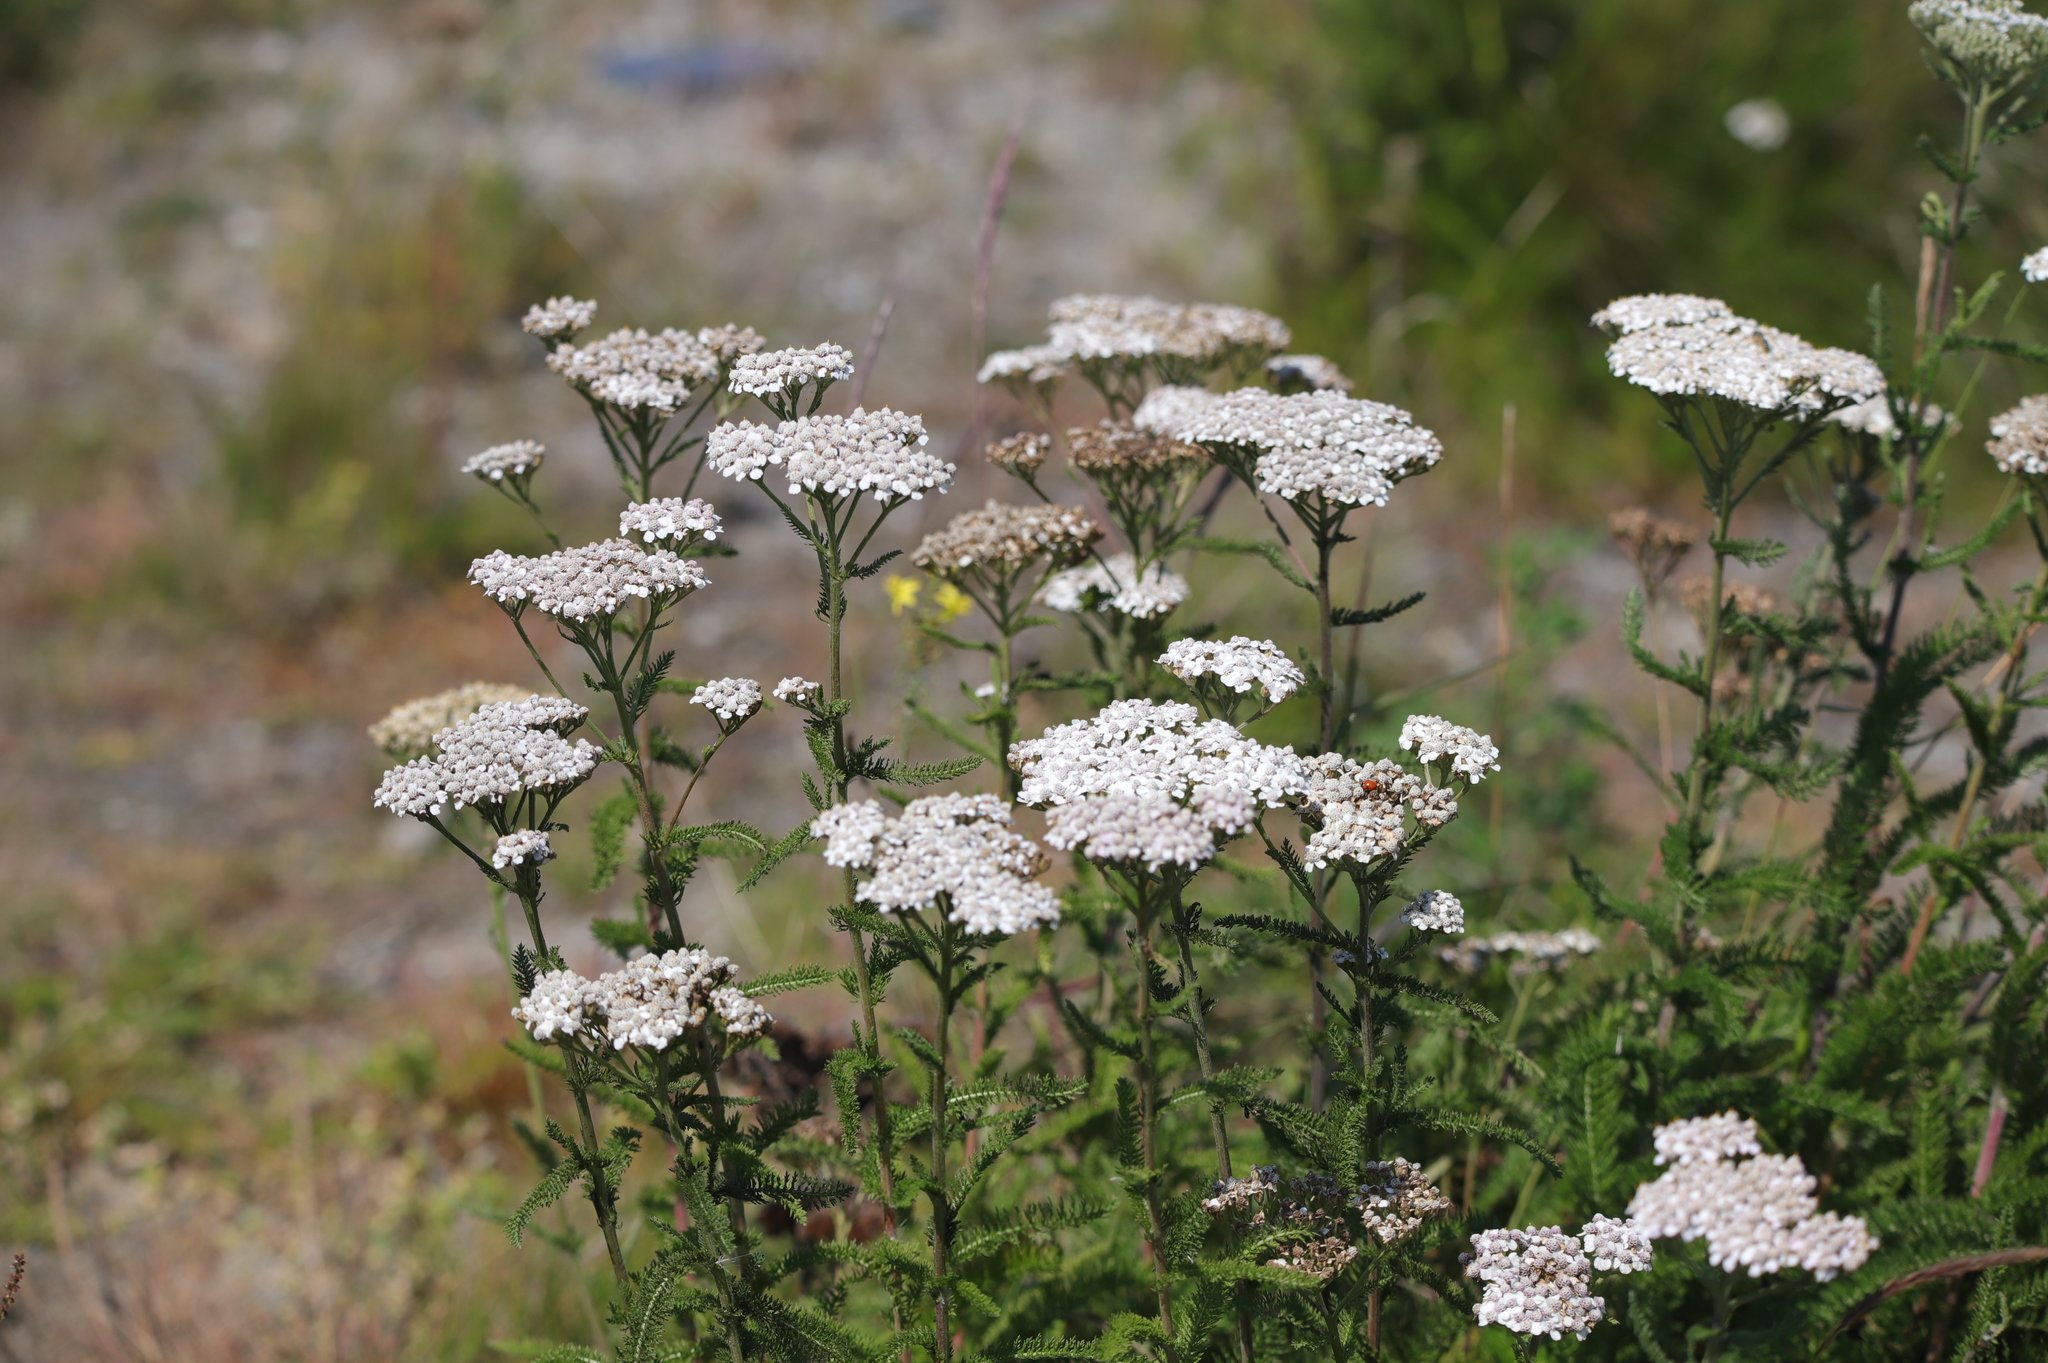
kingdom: Plantae
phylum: Tracheophyta
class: Magnoliopsida
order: Asterales
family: Asteraceae
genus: Achillea
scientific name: Achillea millefolium
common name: Yarrow
